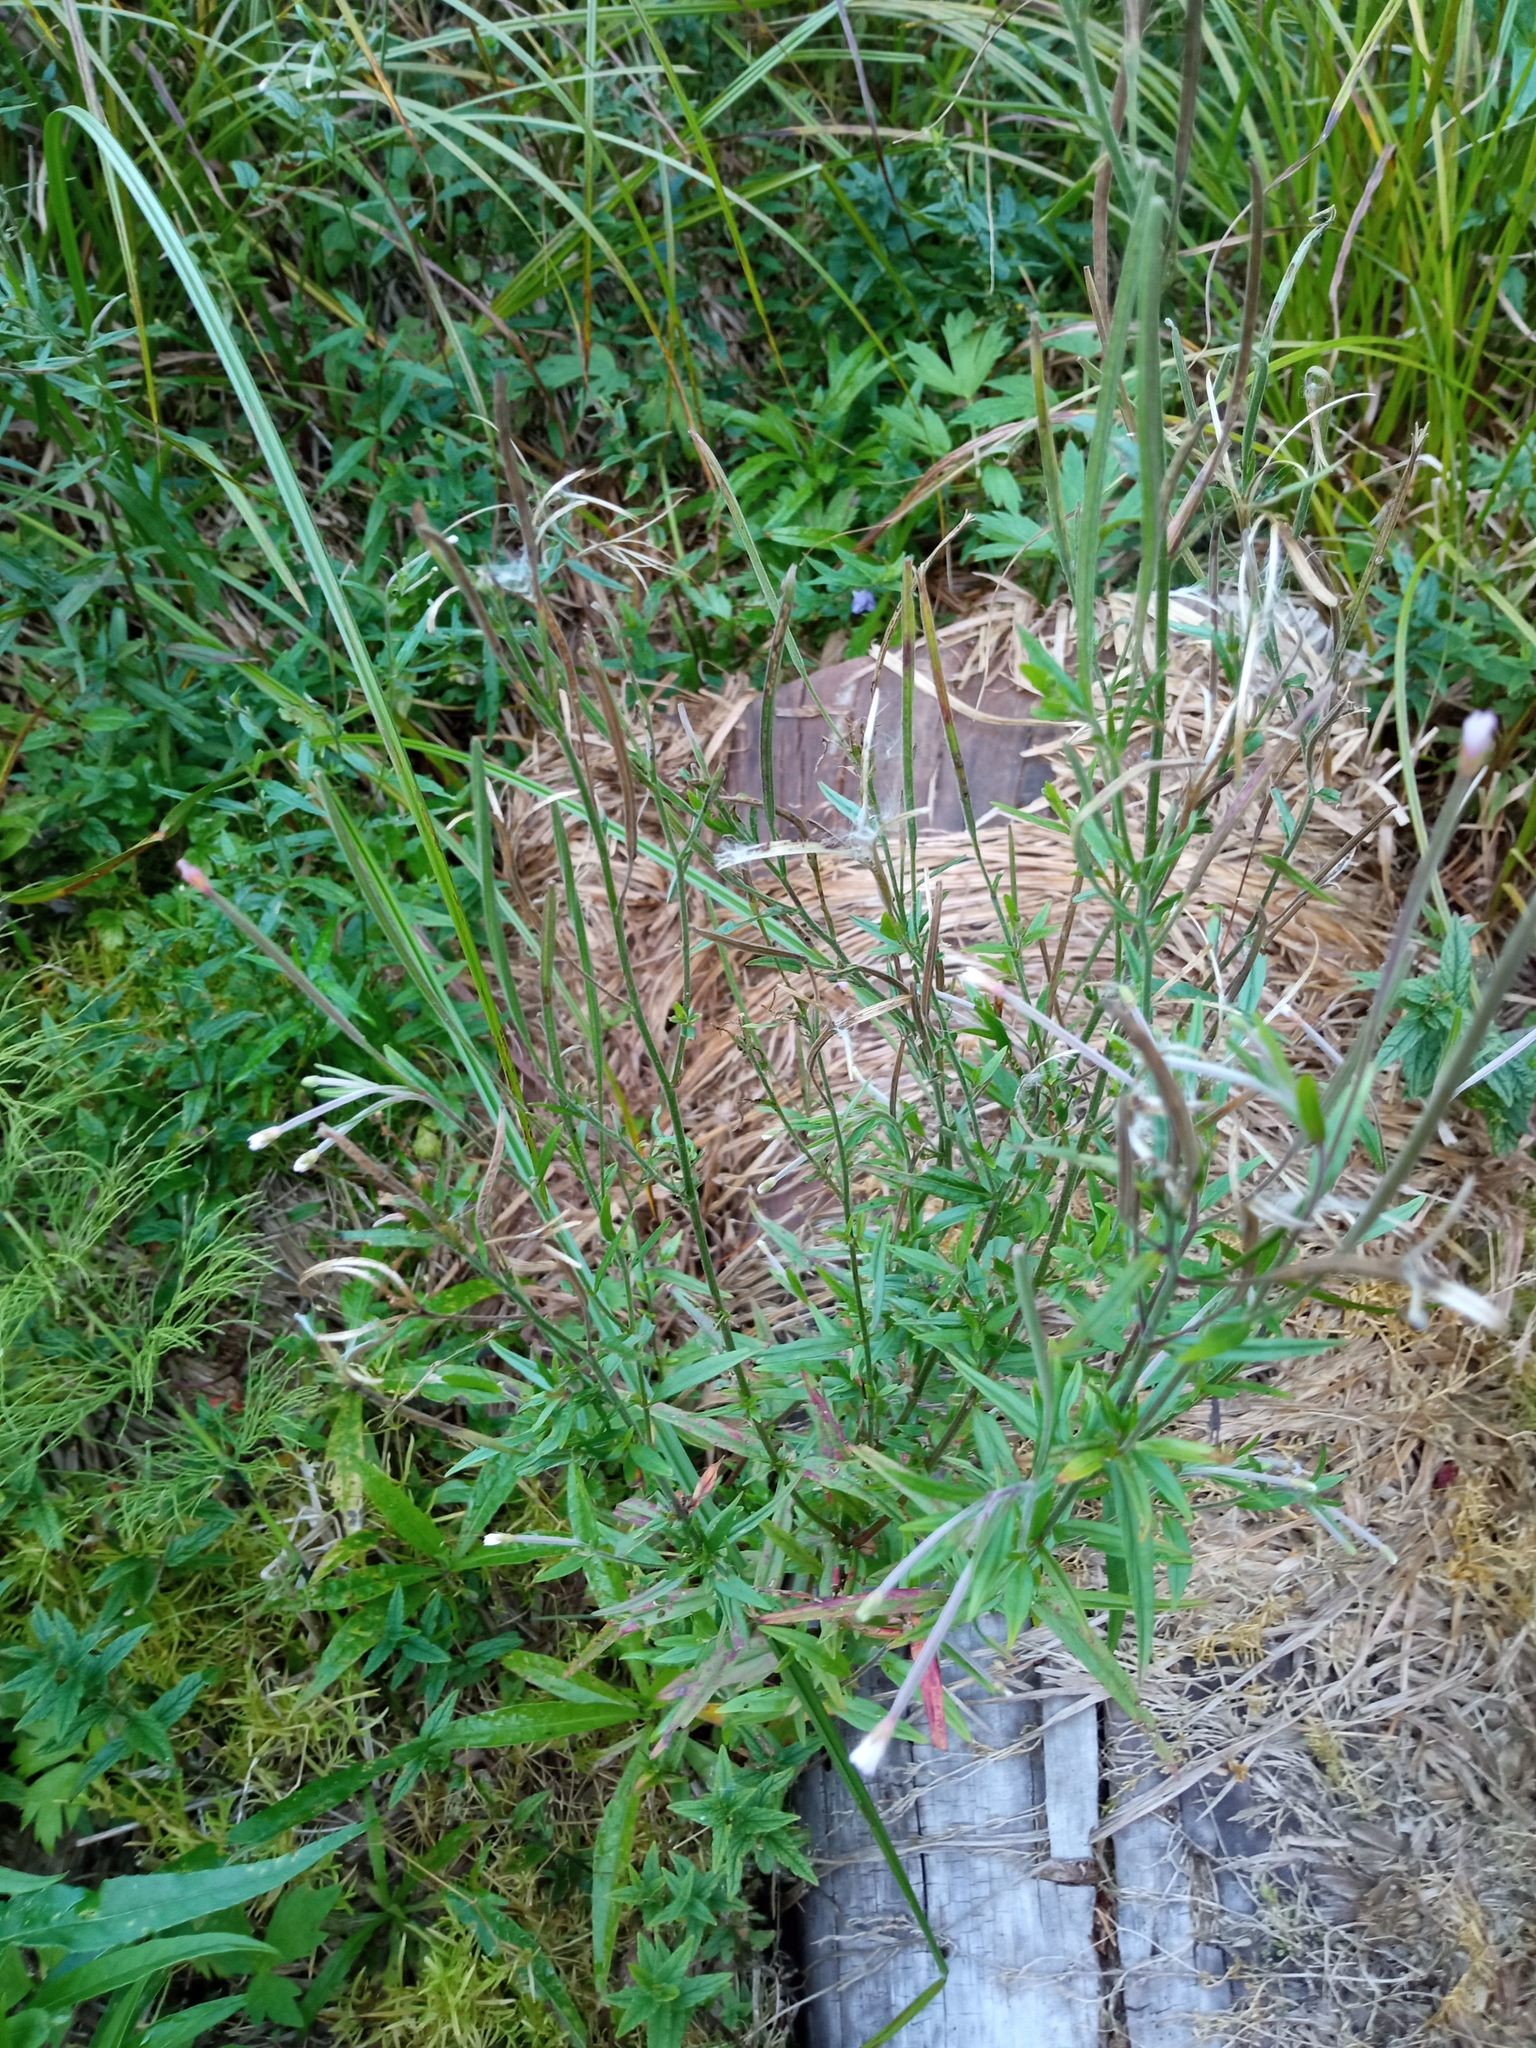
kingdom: Plantae
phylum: Tracheophyta
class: Magnoliopsida
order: Myrtales
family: Onagraceae
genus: Epilobium
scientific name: Epilobium palustre
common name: Marsh willowherb
